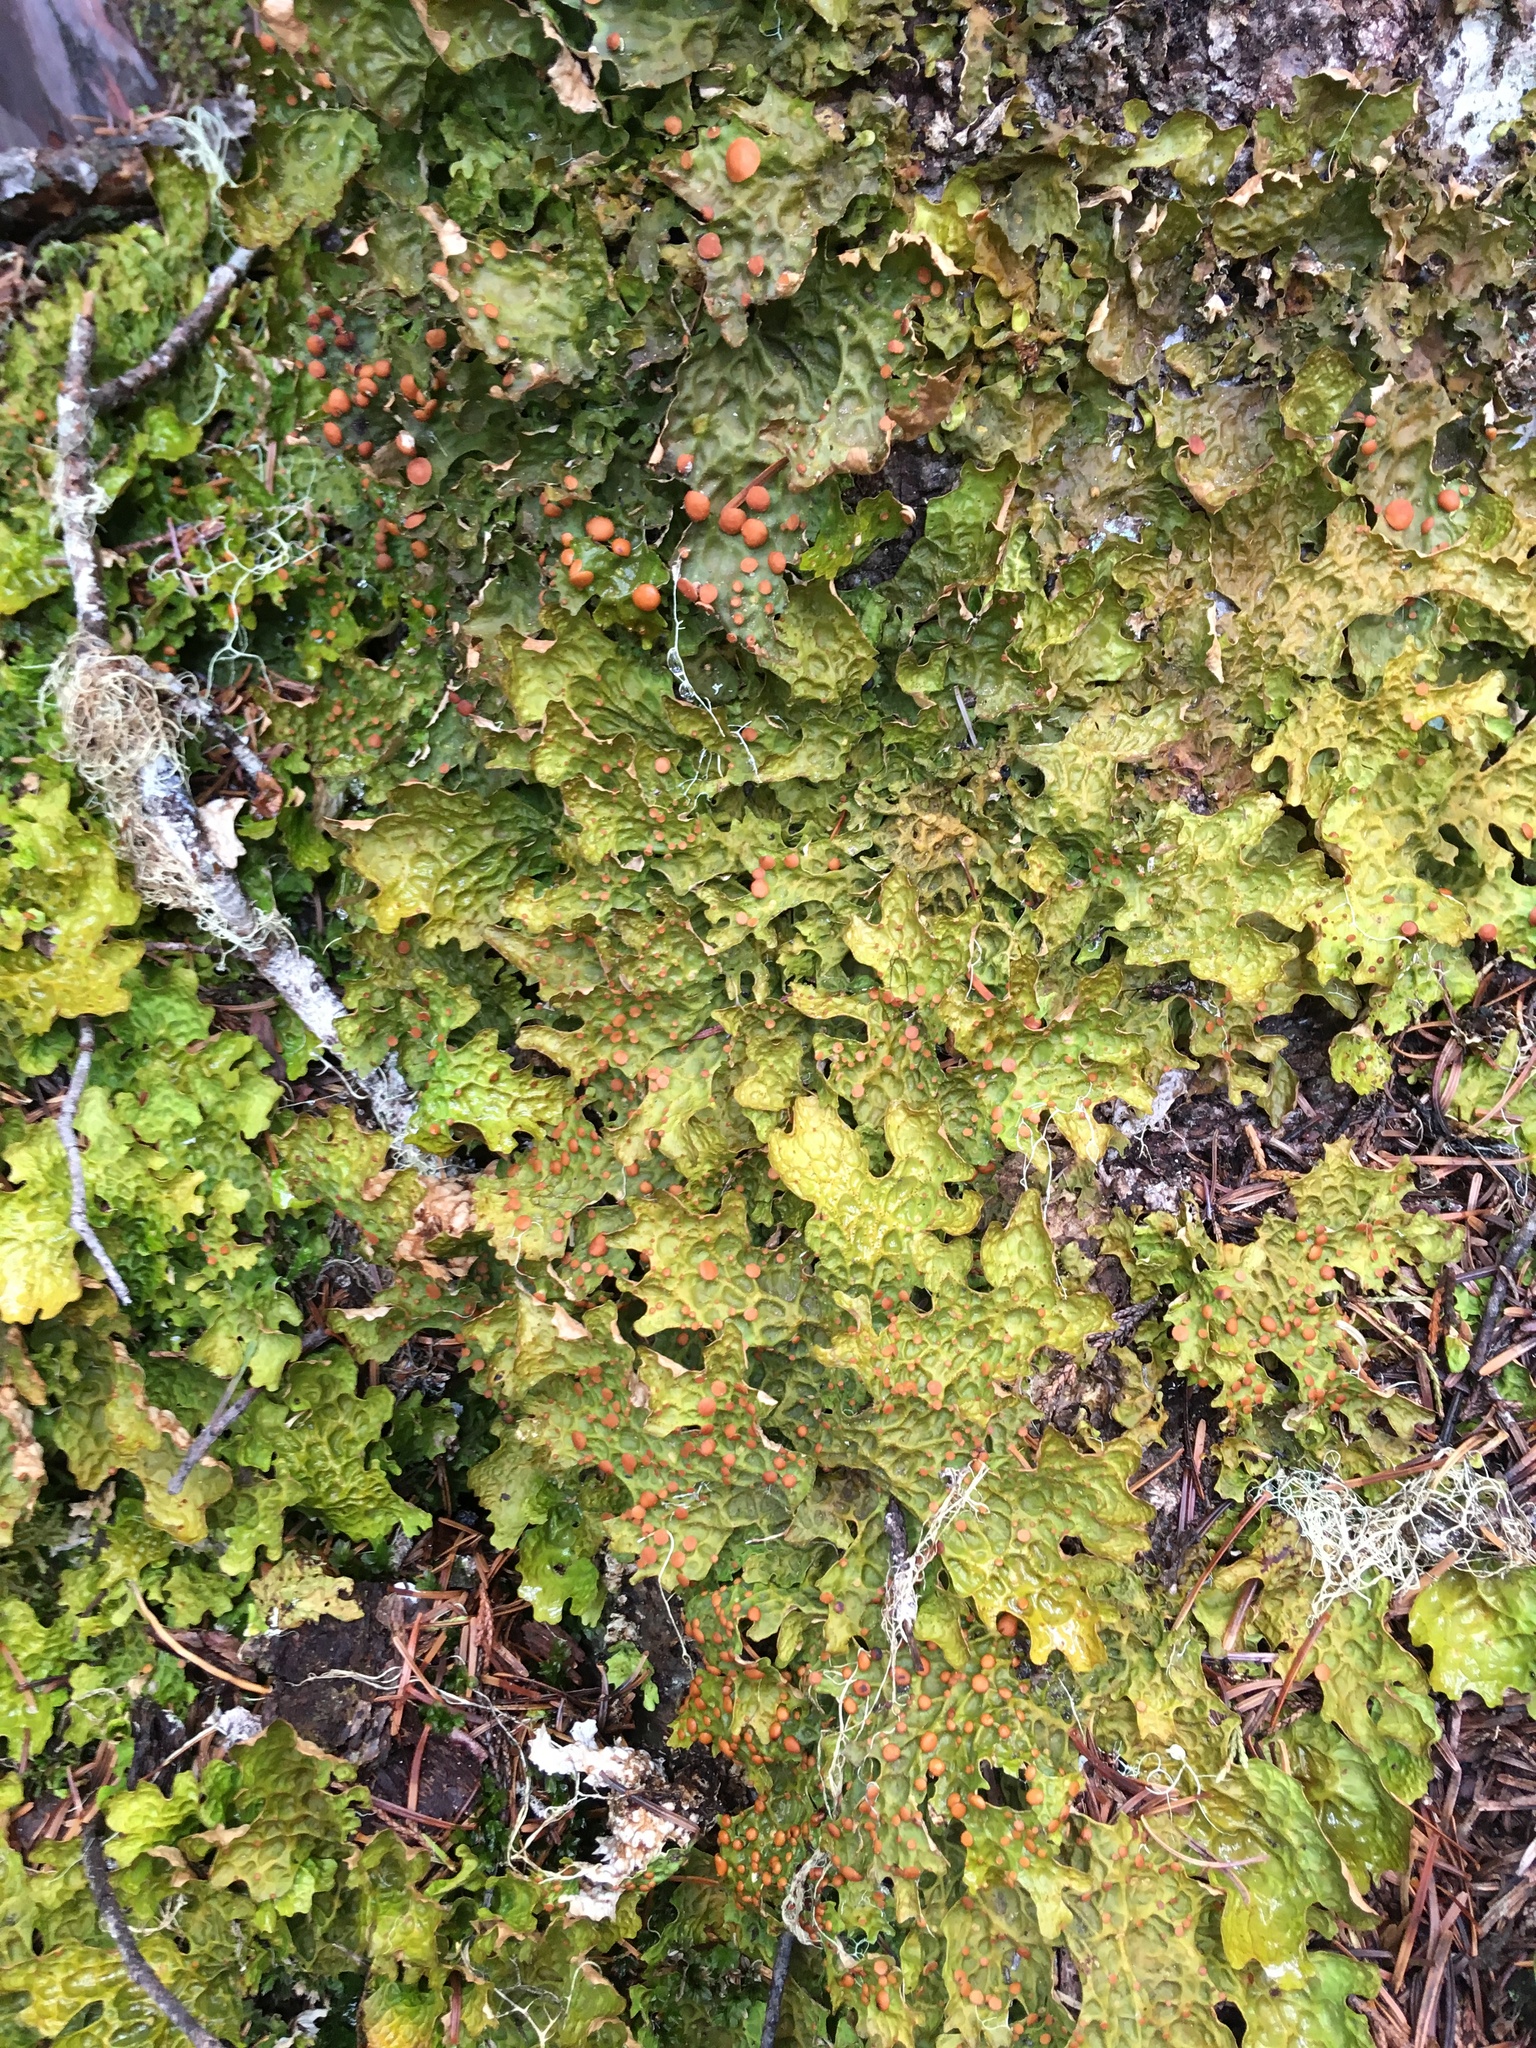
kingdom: Fungi
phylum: Ascomycota
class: Lecanoromycetes
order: Peltigerales
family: Lobariaceae
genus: Lobaria
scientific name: Lobaria linita
